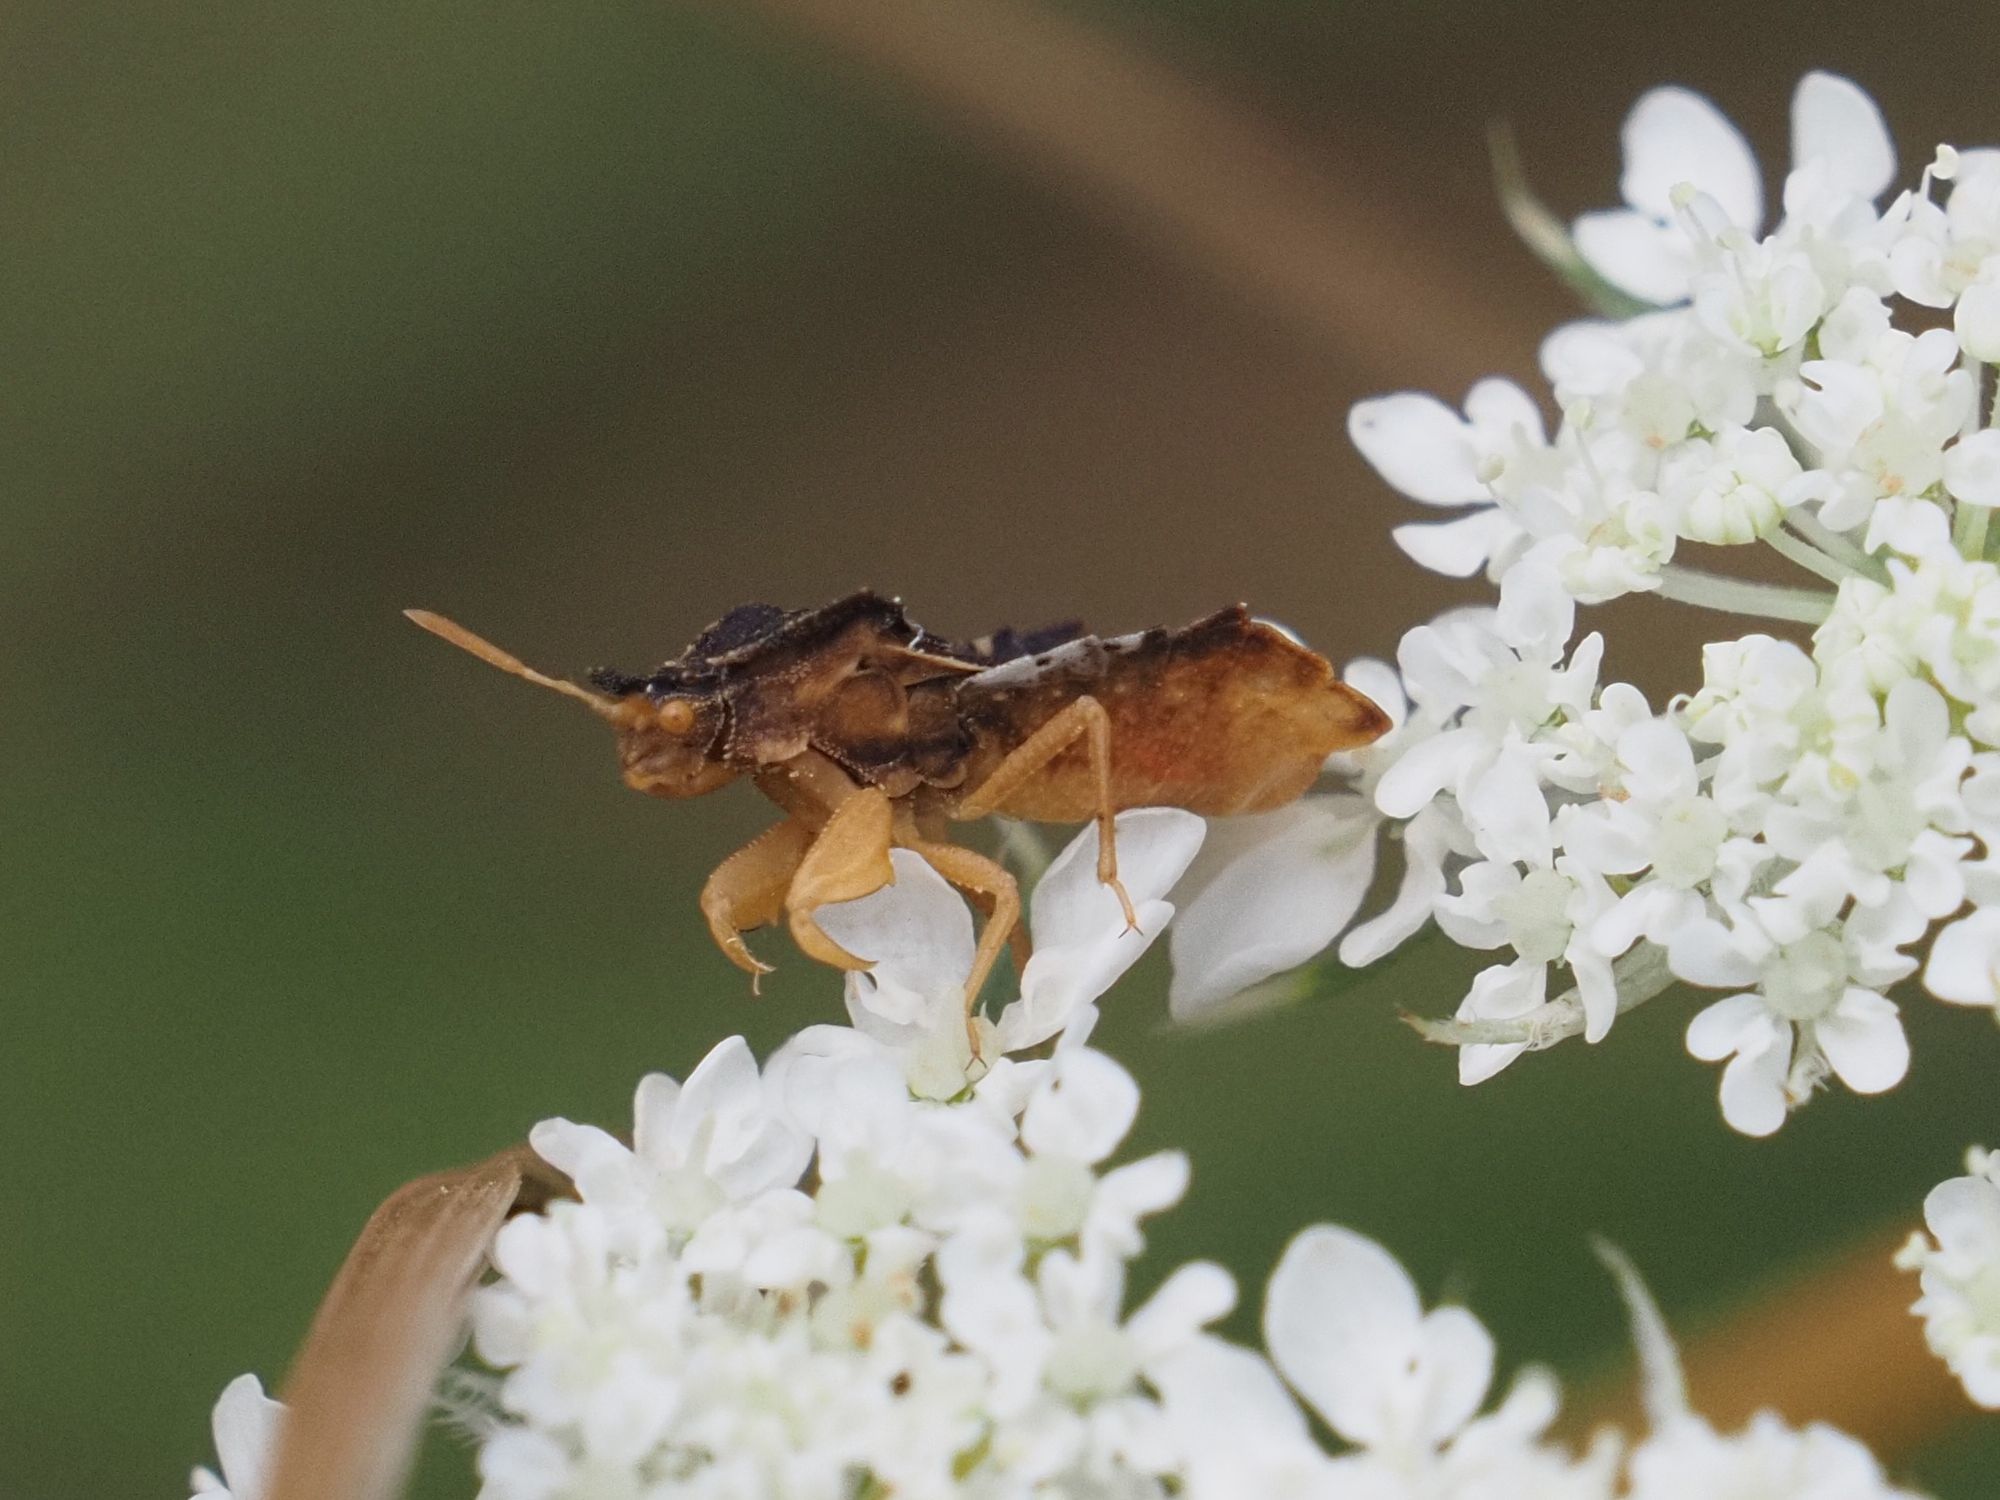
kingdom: Animalia
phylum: Arthropoda
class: Insecta
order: Hemiptera
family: Reduviidae
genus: Phymata
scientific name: Phymata crassipes
